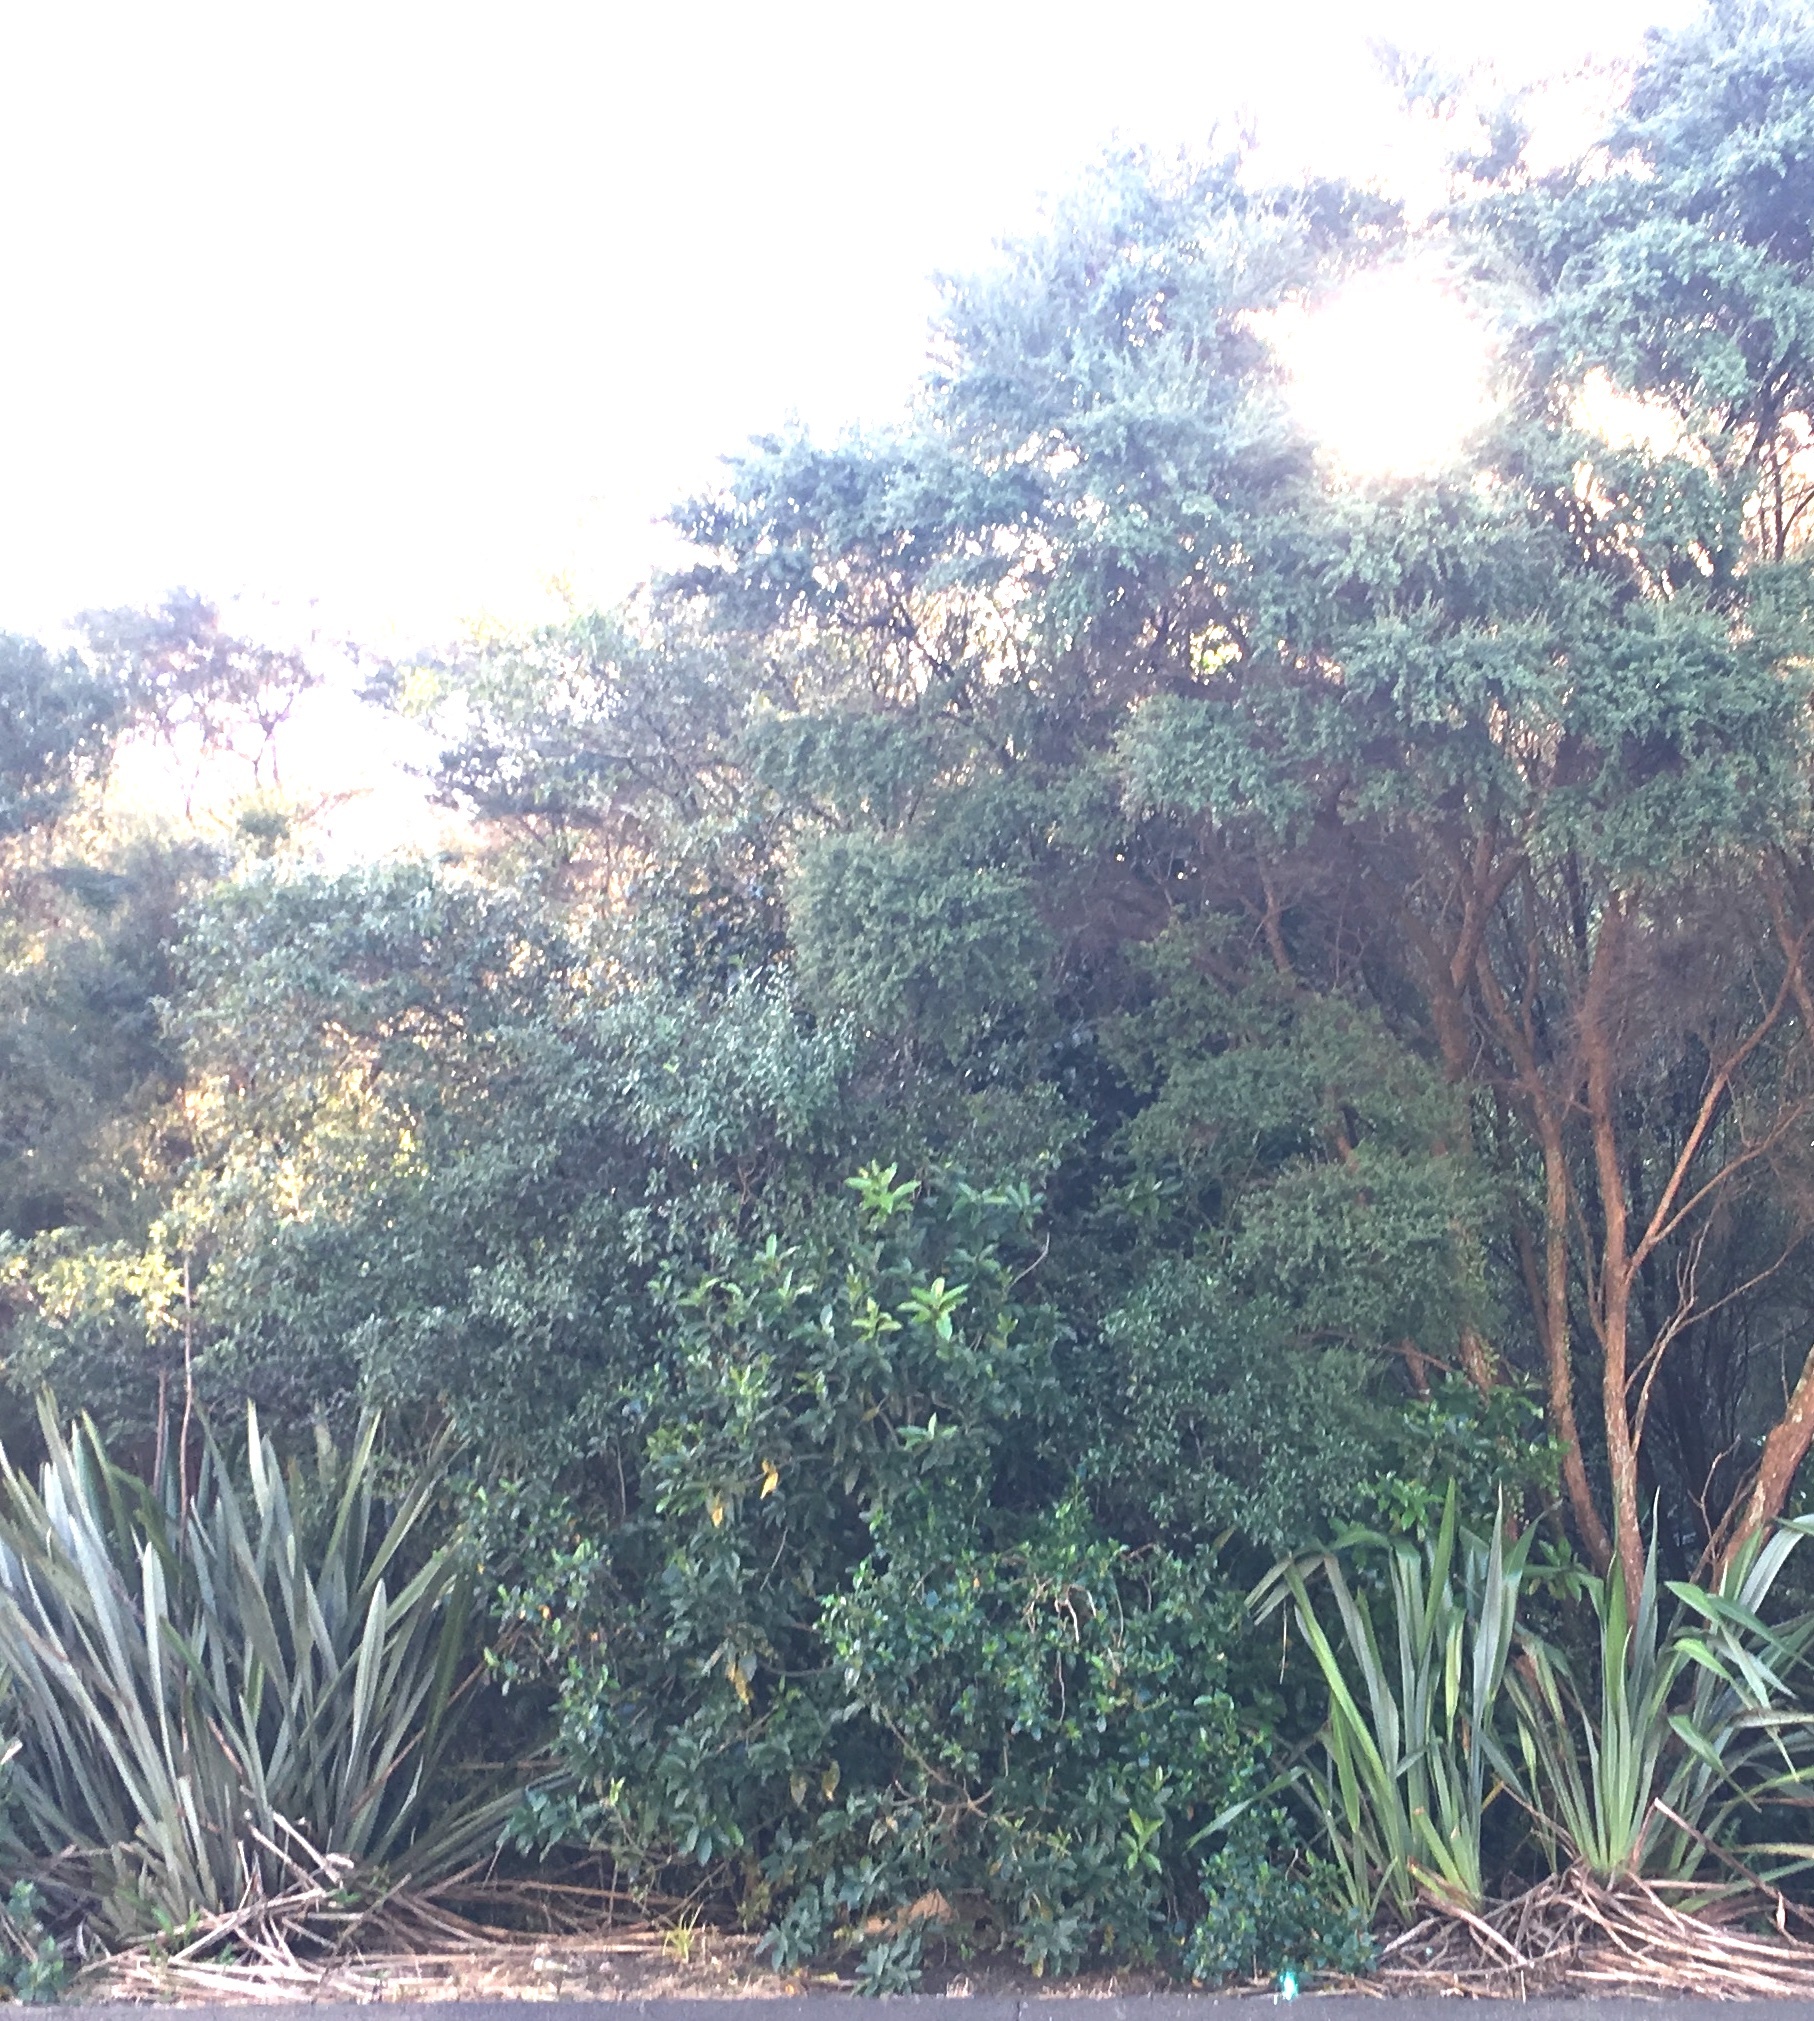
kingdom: Plantae
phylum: Tracheophyta
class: Magnoliopsida
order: Malpighiales
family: Violaceae
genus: Melicytus
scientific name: Melicytus ramiflorus
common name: Mahoe
